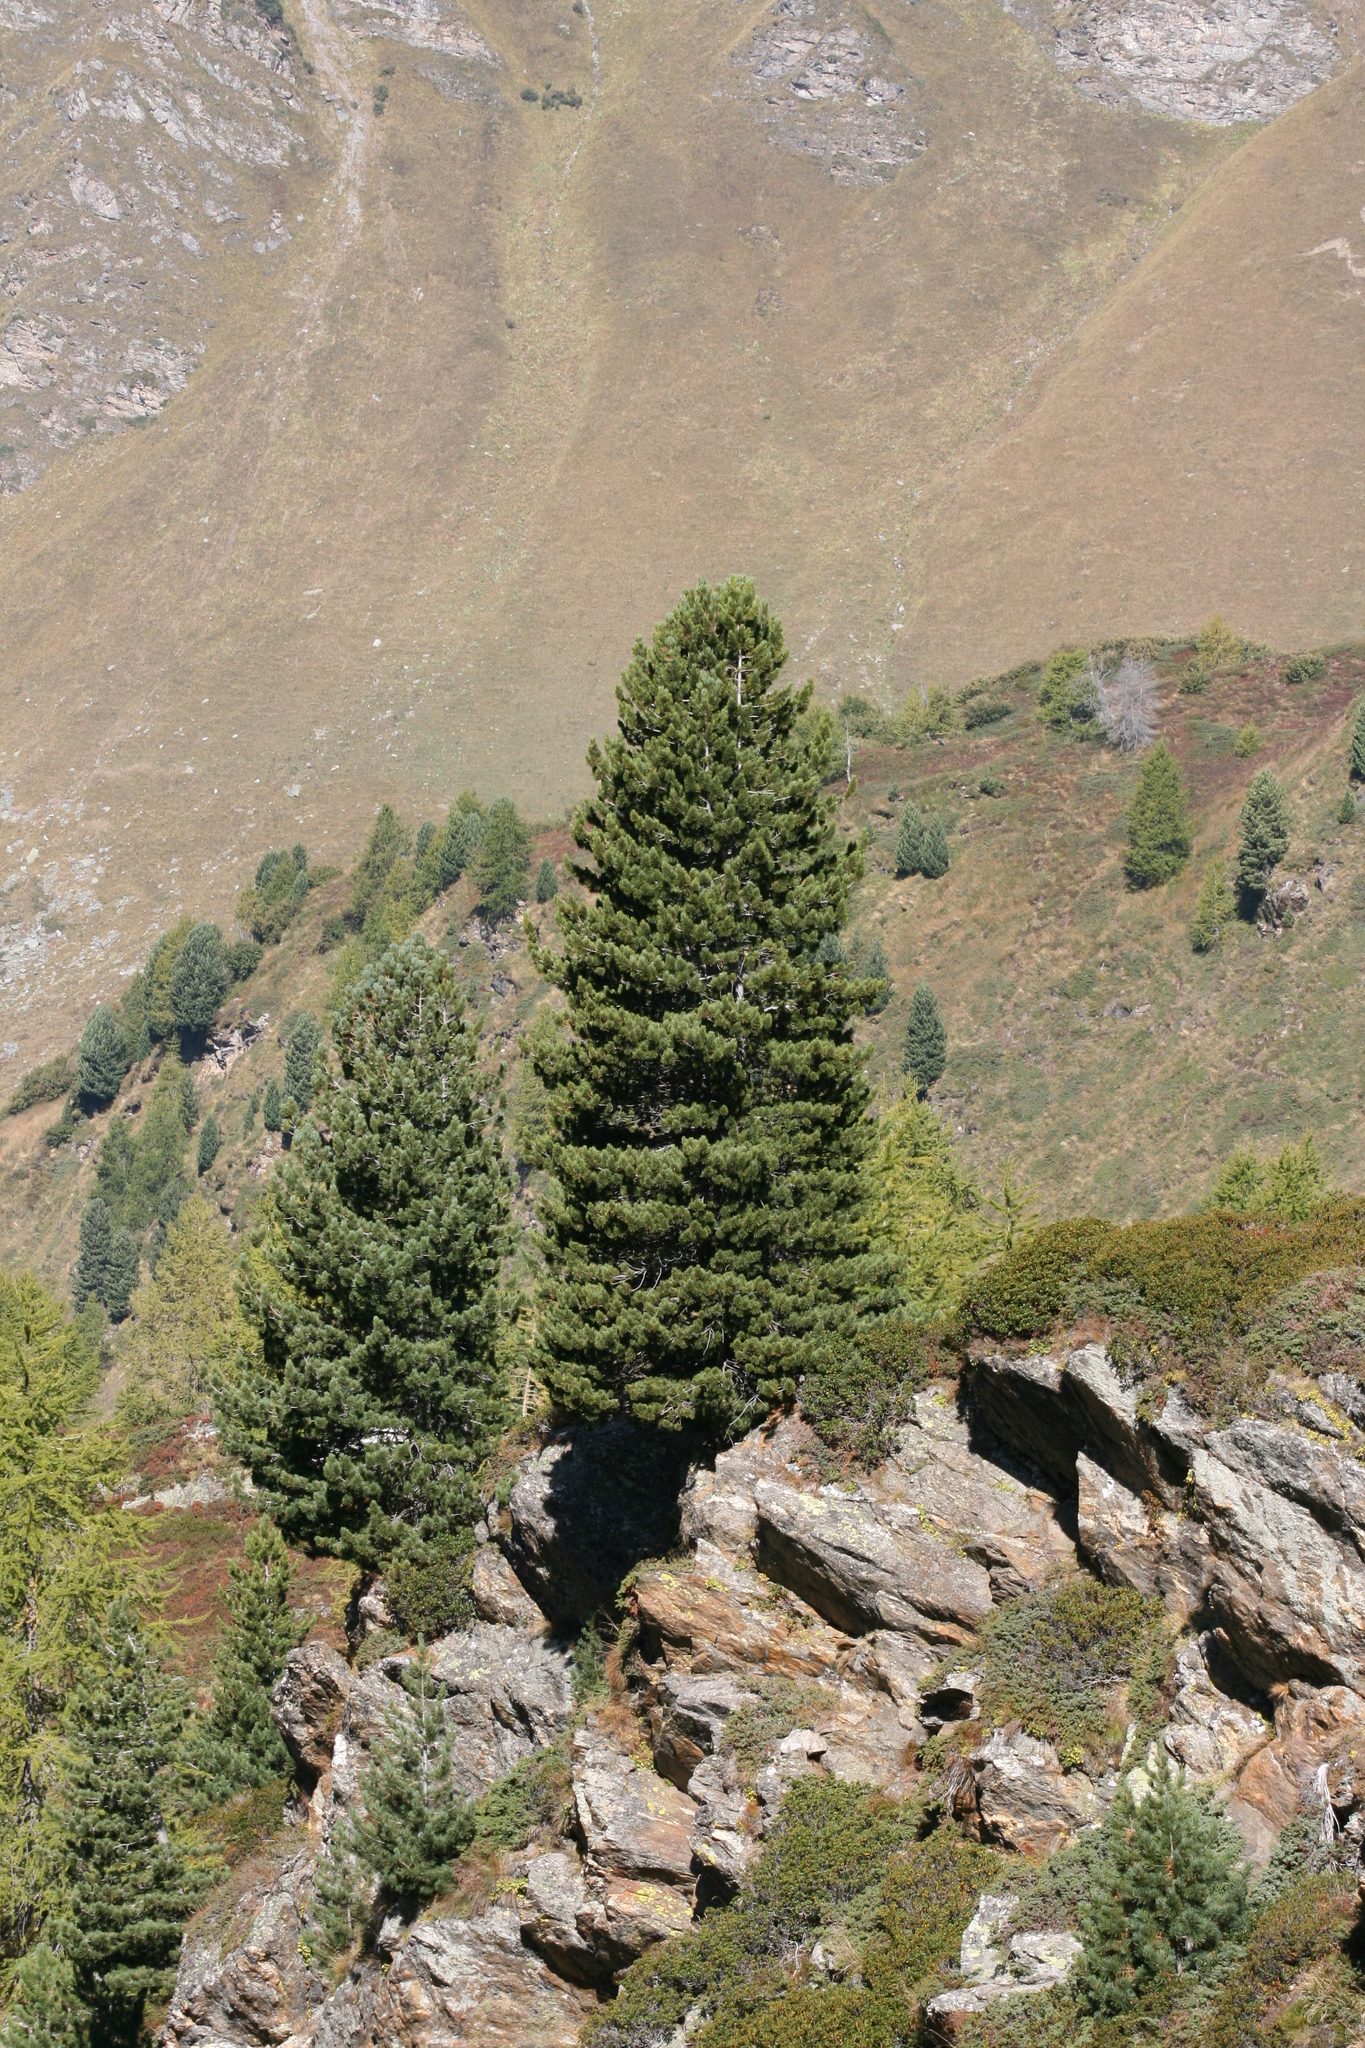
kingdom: Plantae
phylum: Tracheophyta
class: Pinopsida
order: Pinales
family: Pinaceae
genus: Pinus
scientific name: Pinus cembra
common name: Arolla pine
